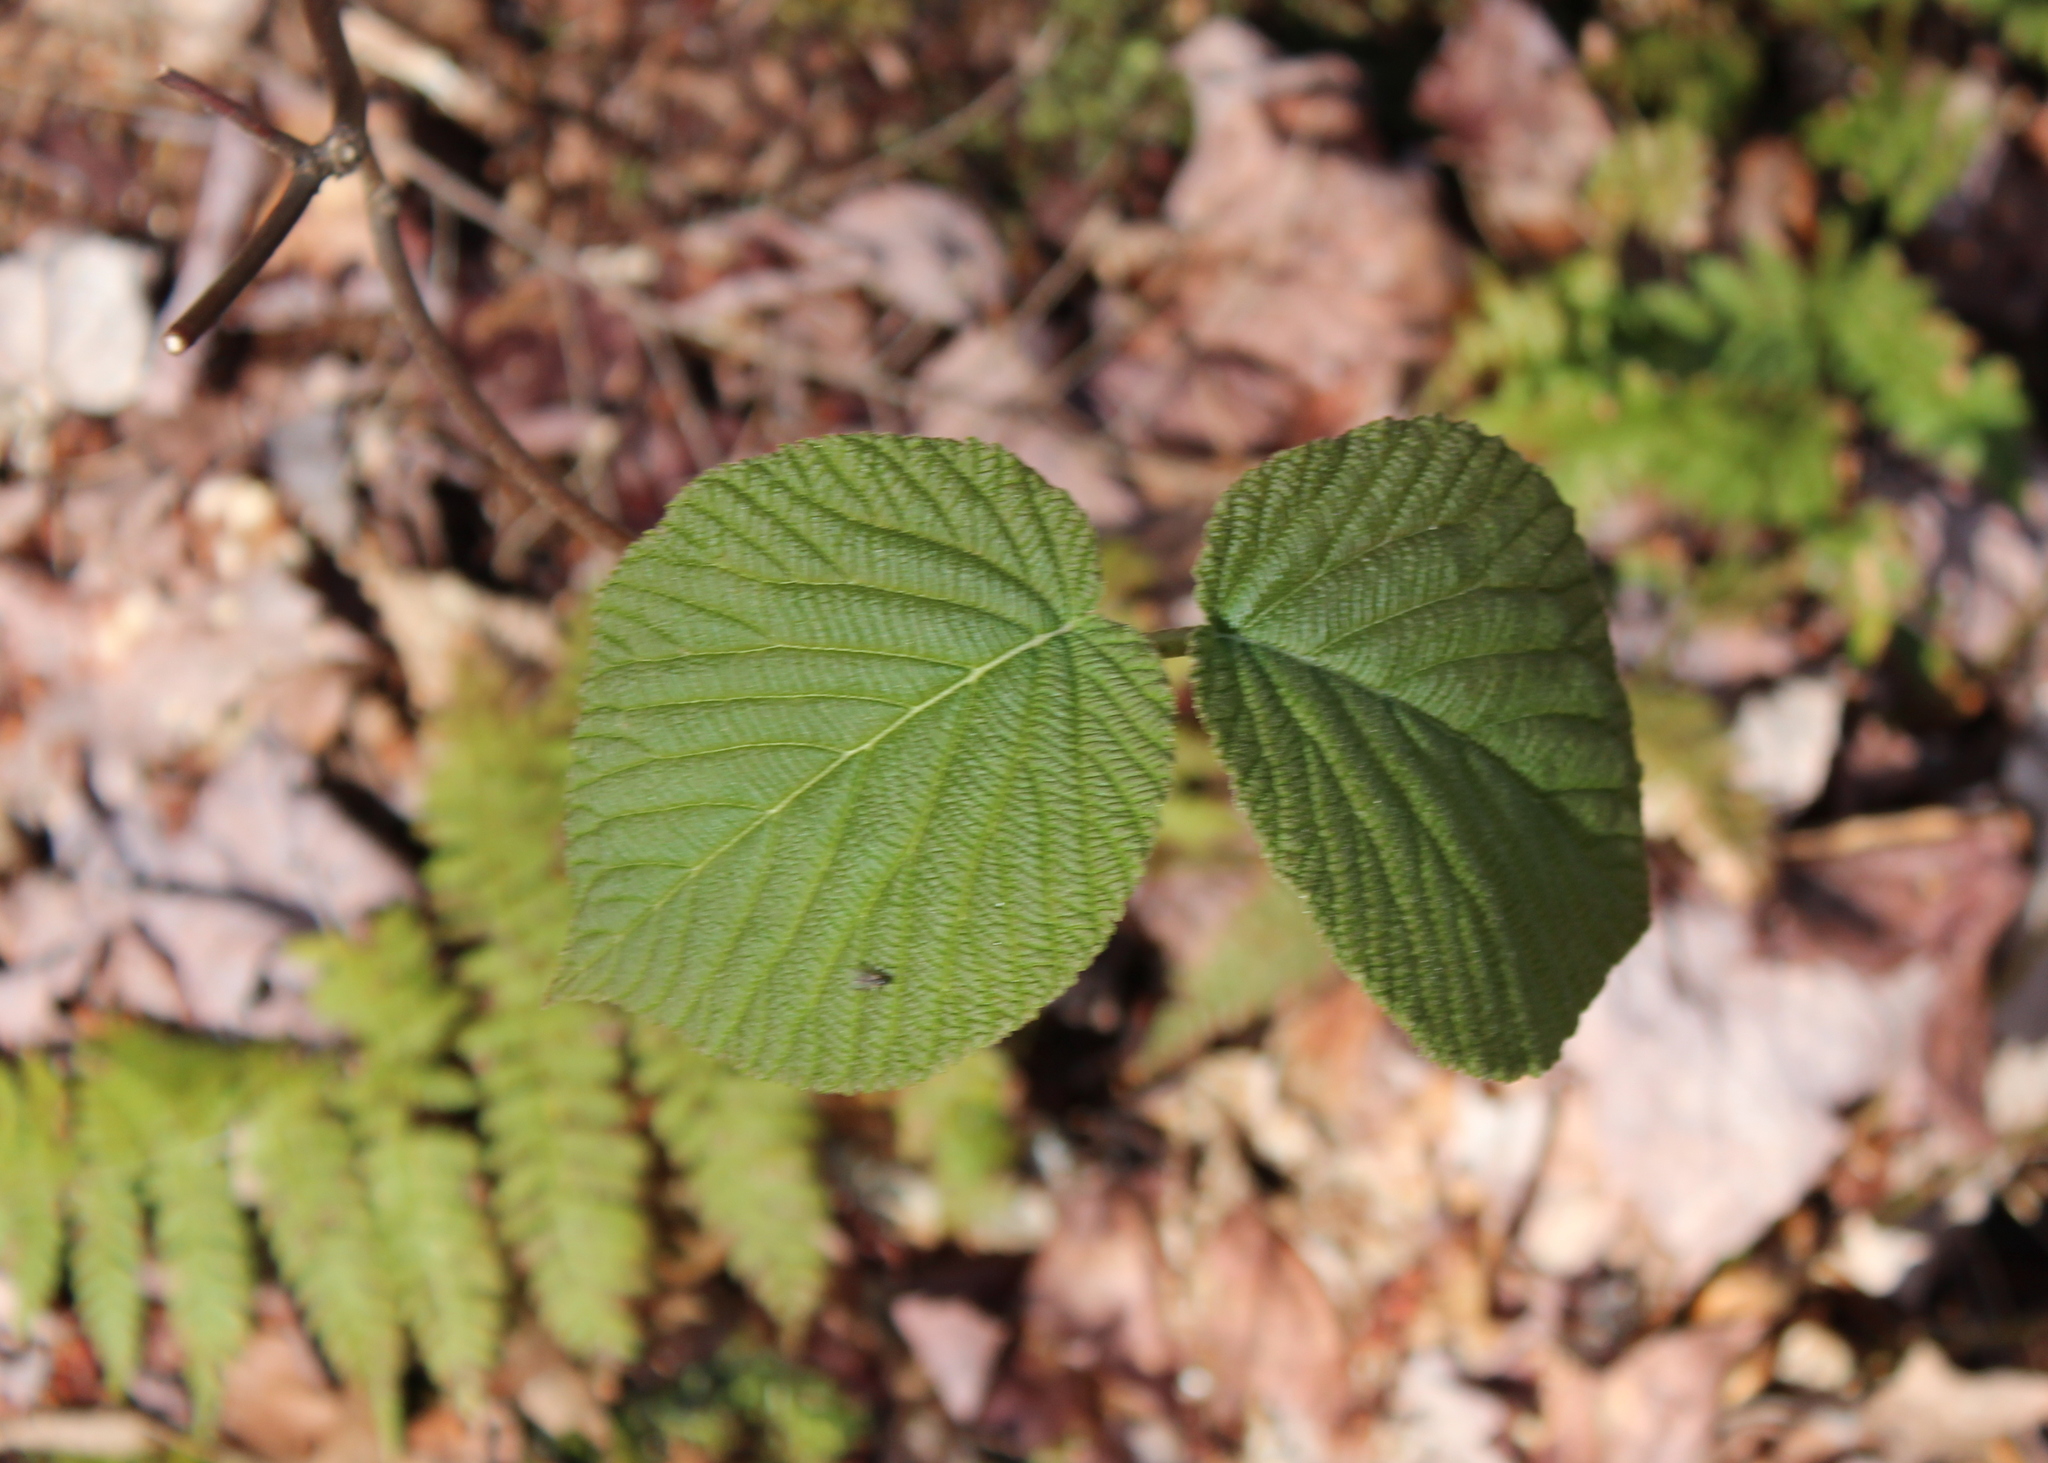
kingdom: Plantae
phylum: Tracheophyta
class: Magnoliopsida
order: Dipsacales
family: Viburnaceae
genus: Viburnum
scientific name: Viburnum lantanoides
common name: Hobblebush
